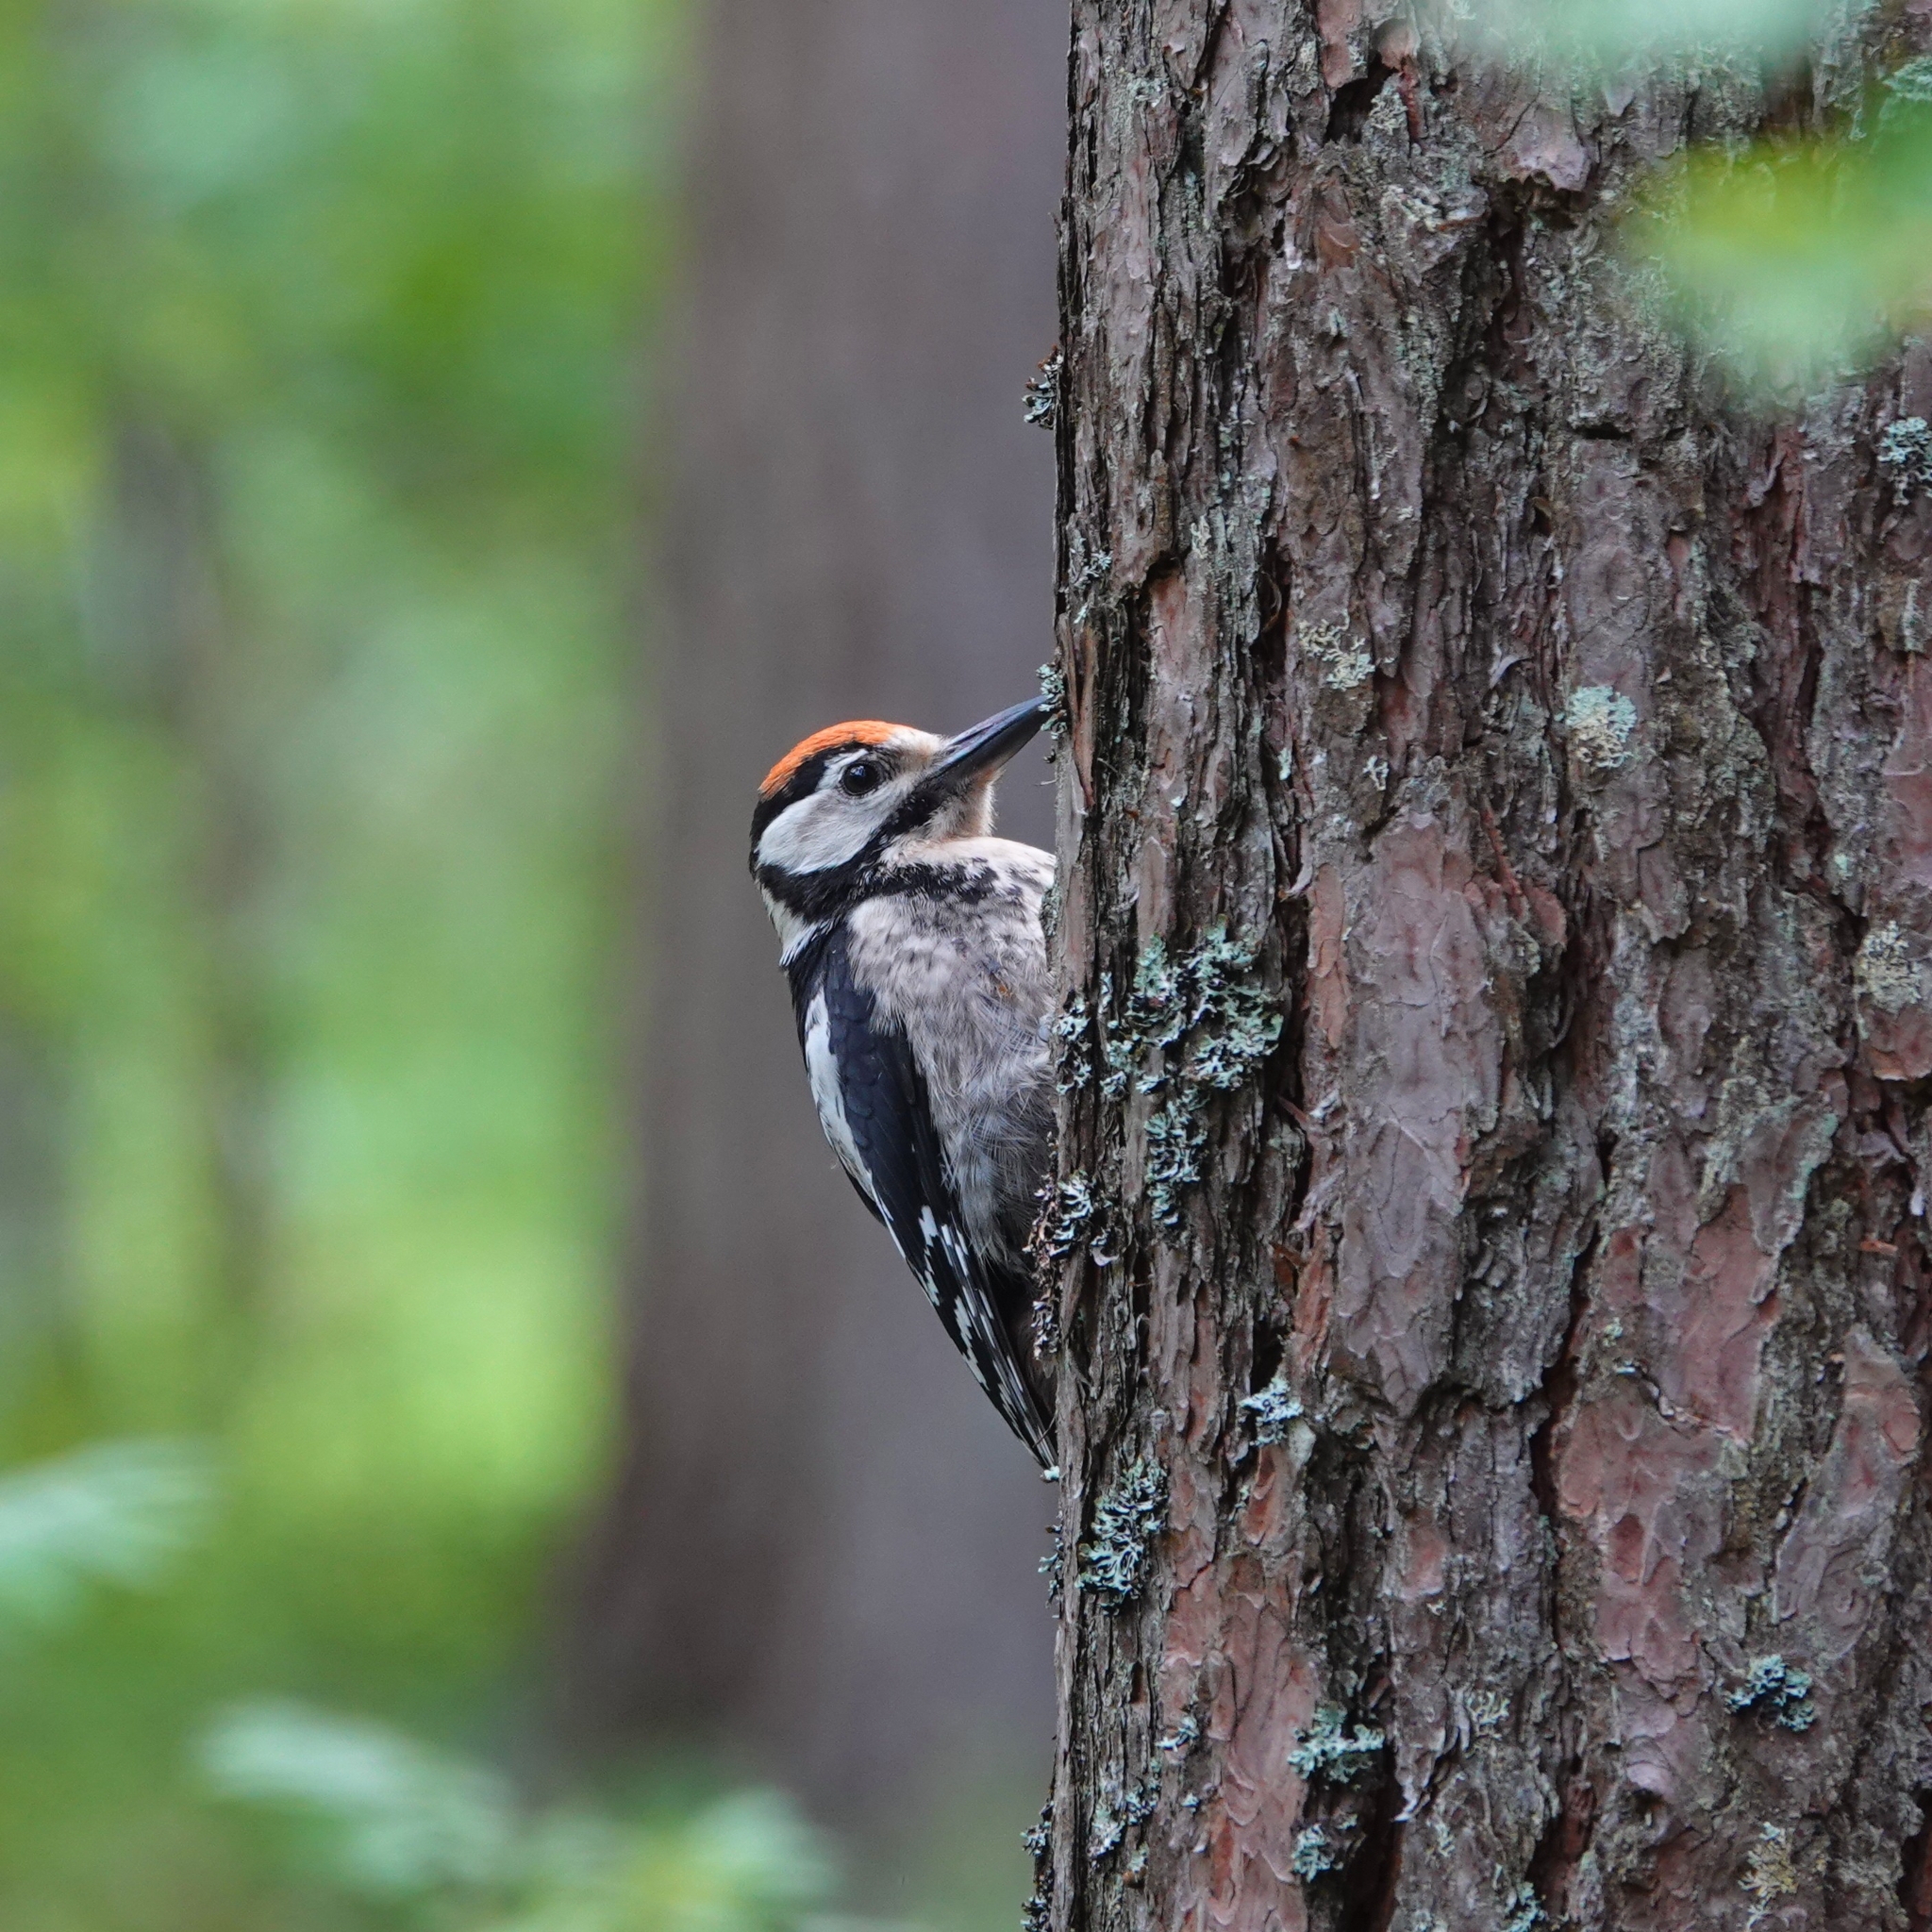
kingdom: Animalia
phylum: Chordata
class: Aves
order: Piciformes
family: Picidae
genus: Dendrocopos
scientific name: Dendrocopos major
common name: Great spotted woodpecker
